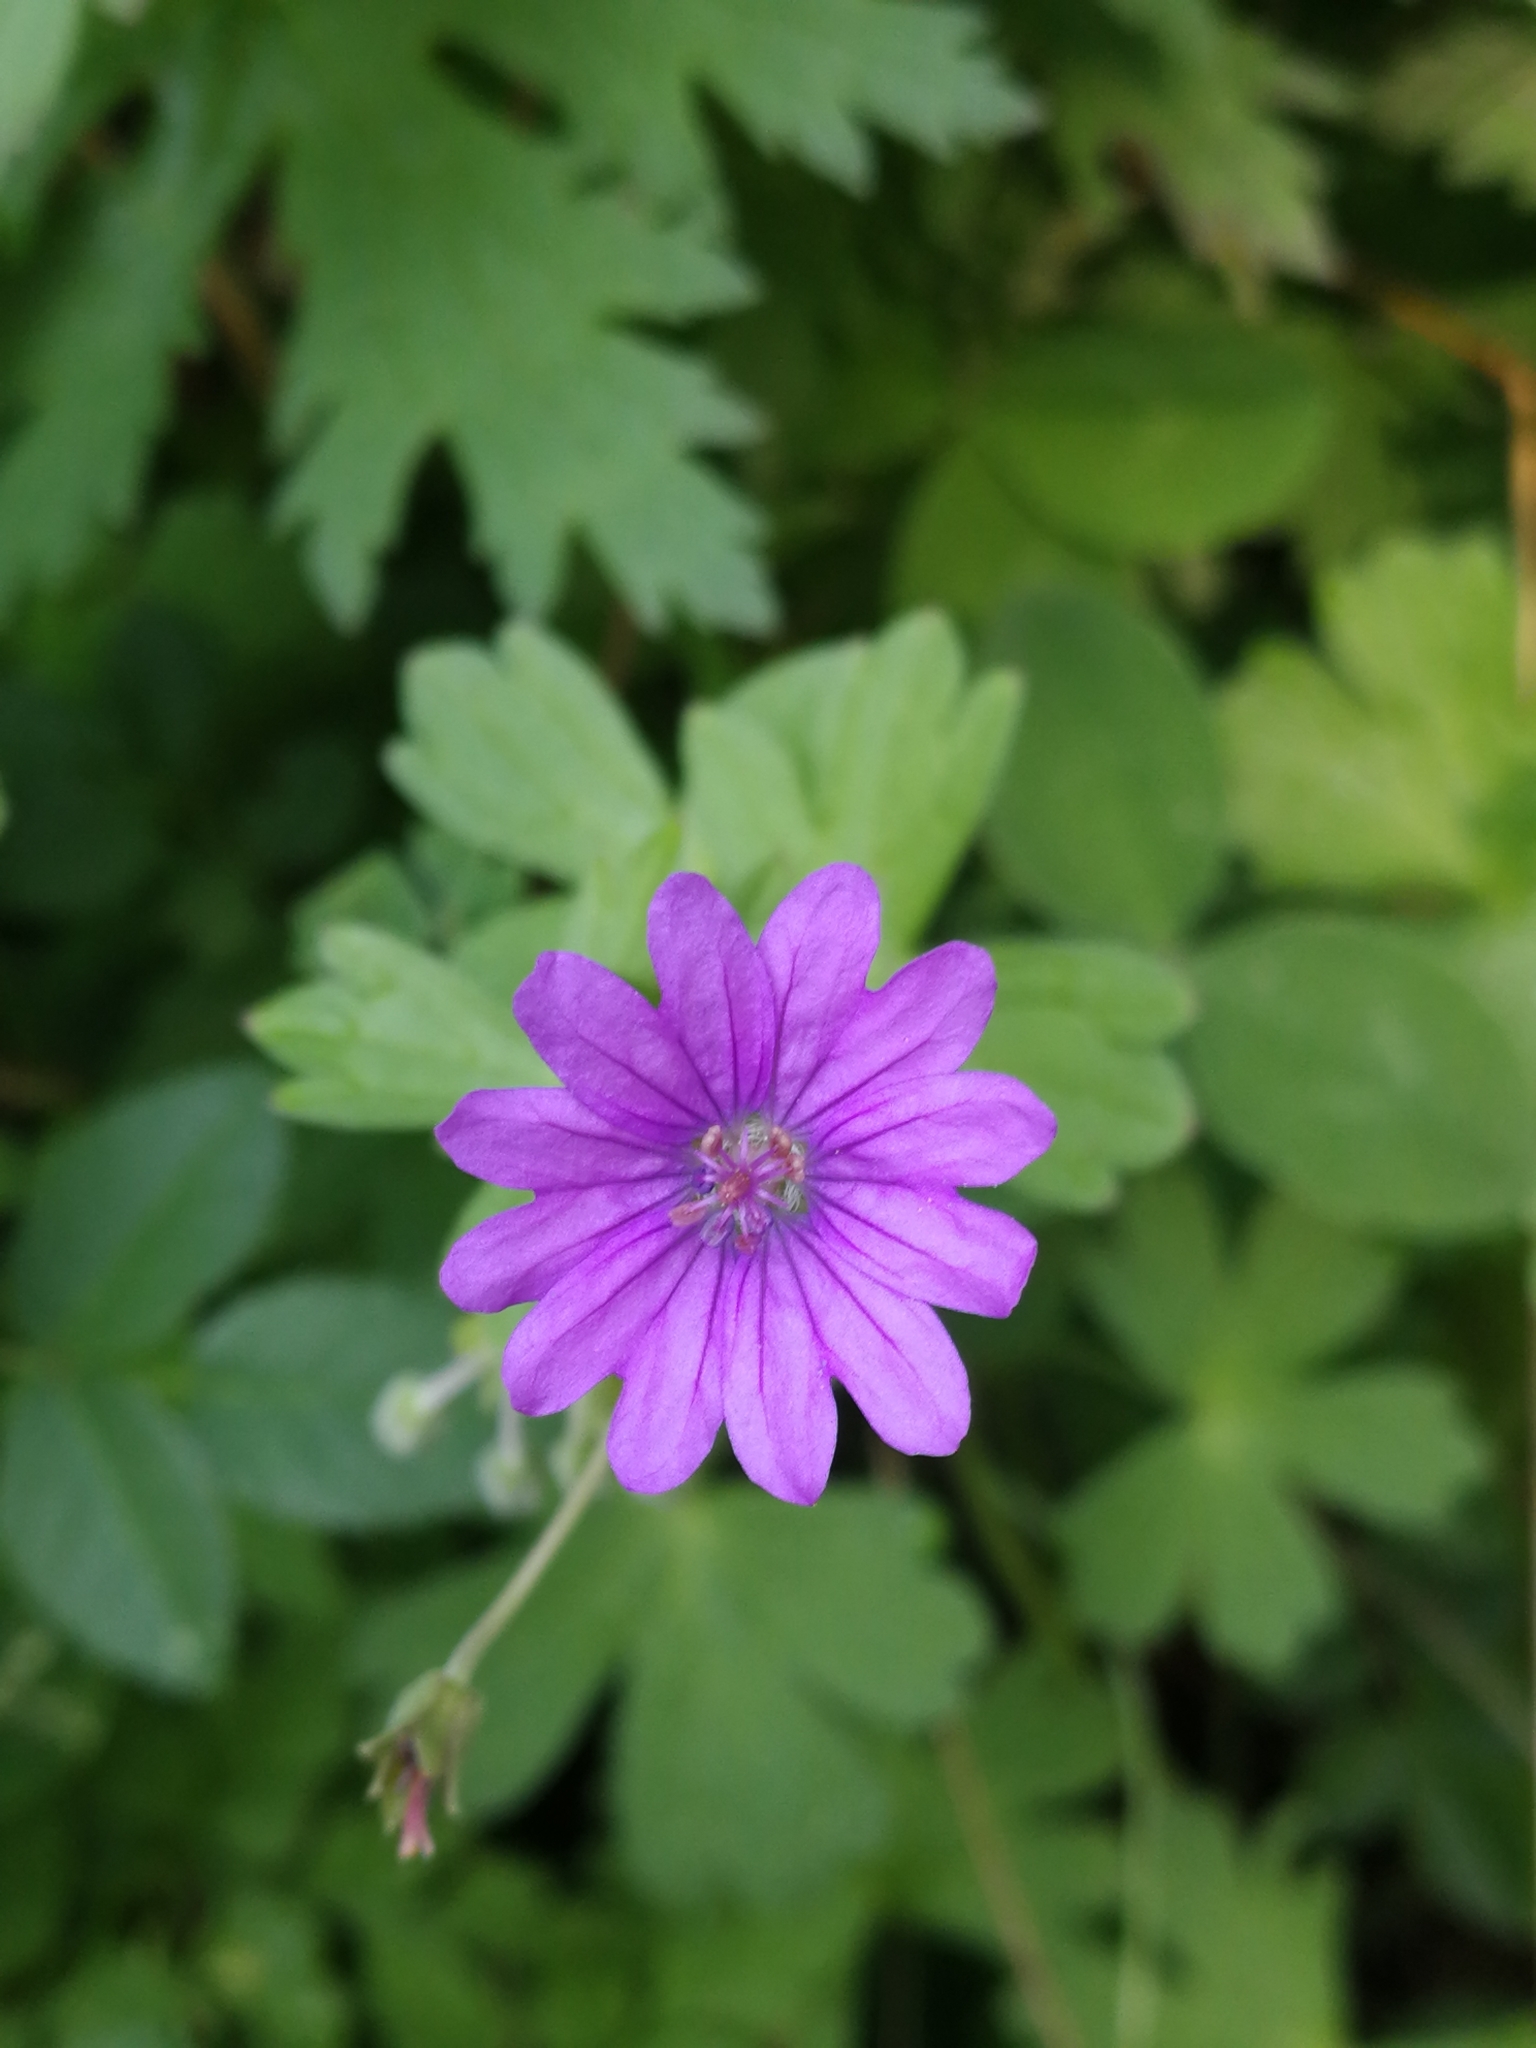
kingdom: Plantae
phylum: Tracheophyta
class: Magnoliopsida
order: Geraniales
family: Geraniaceae
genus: Geranium
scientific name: Geranium pyrenaicum
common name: Hedgerow crane's-bill
